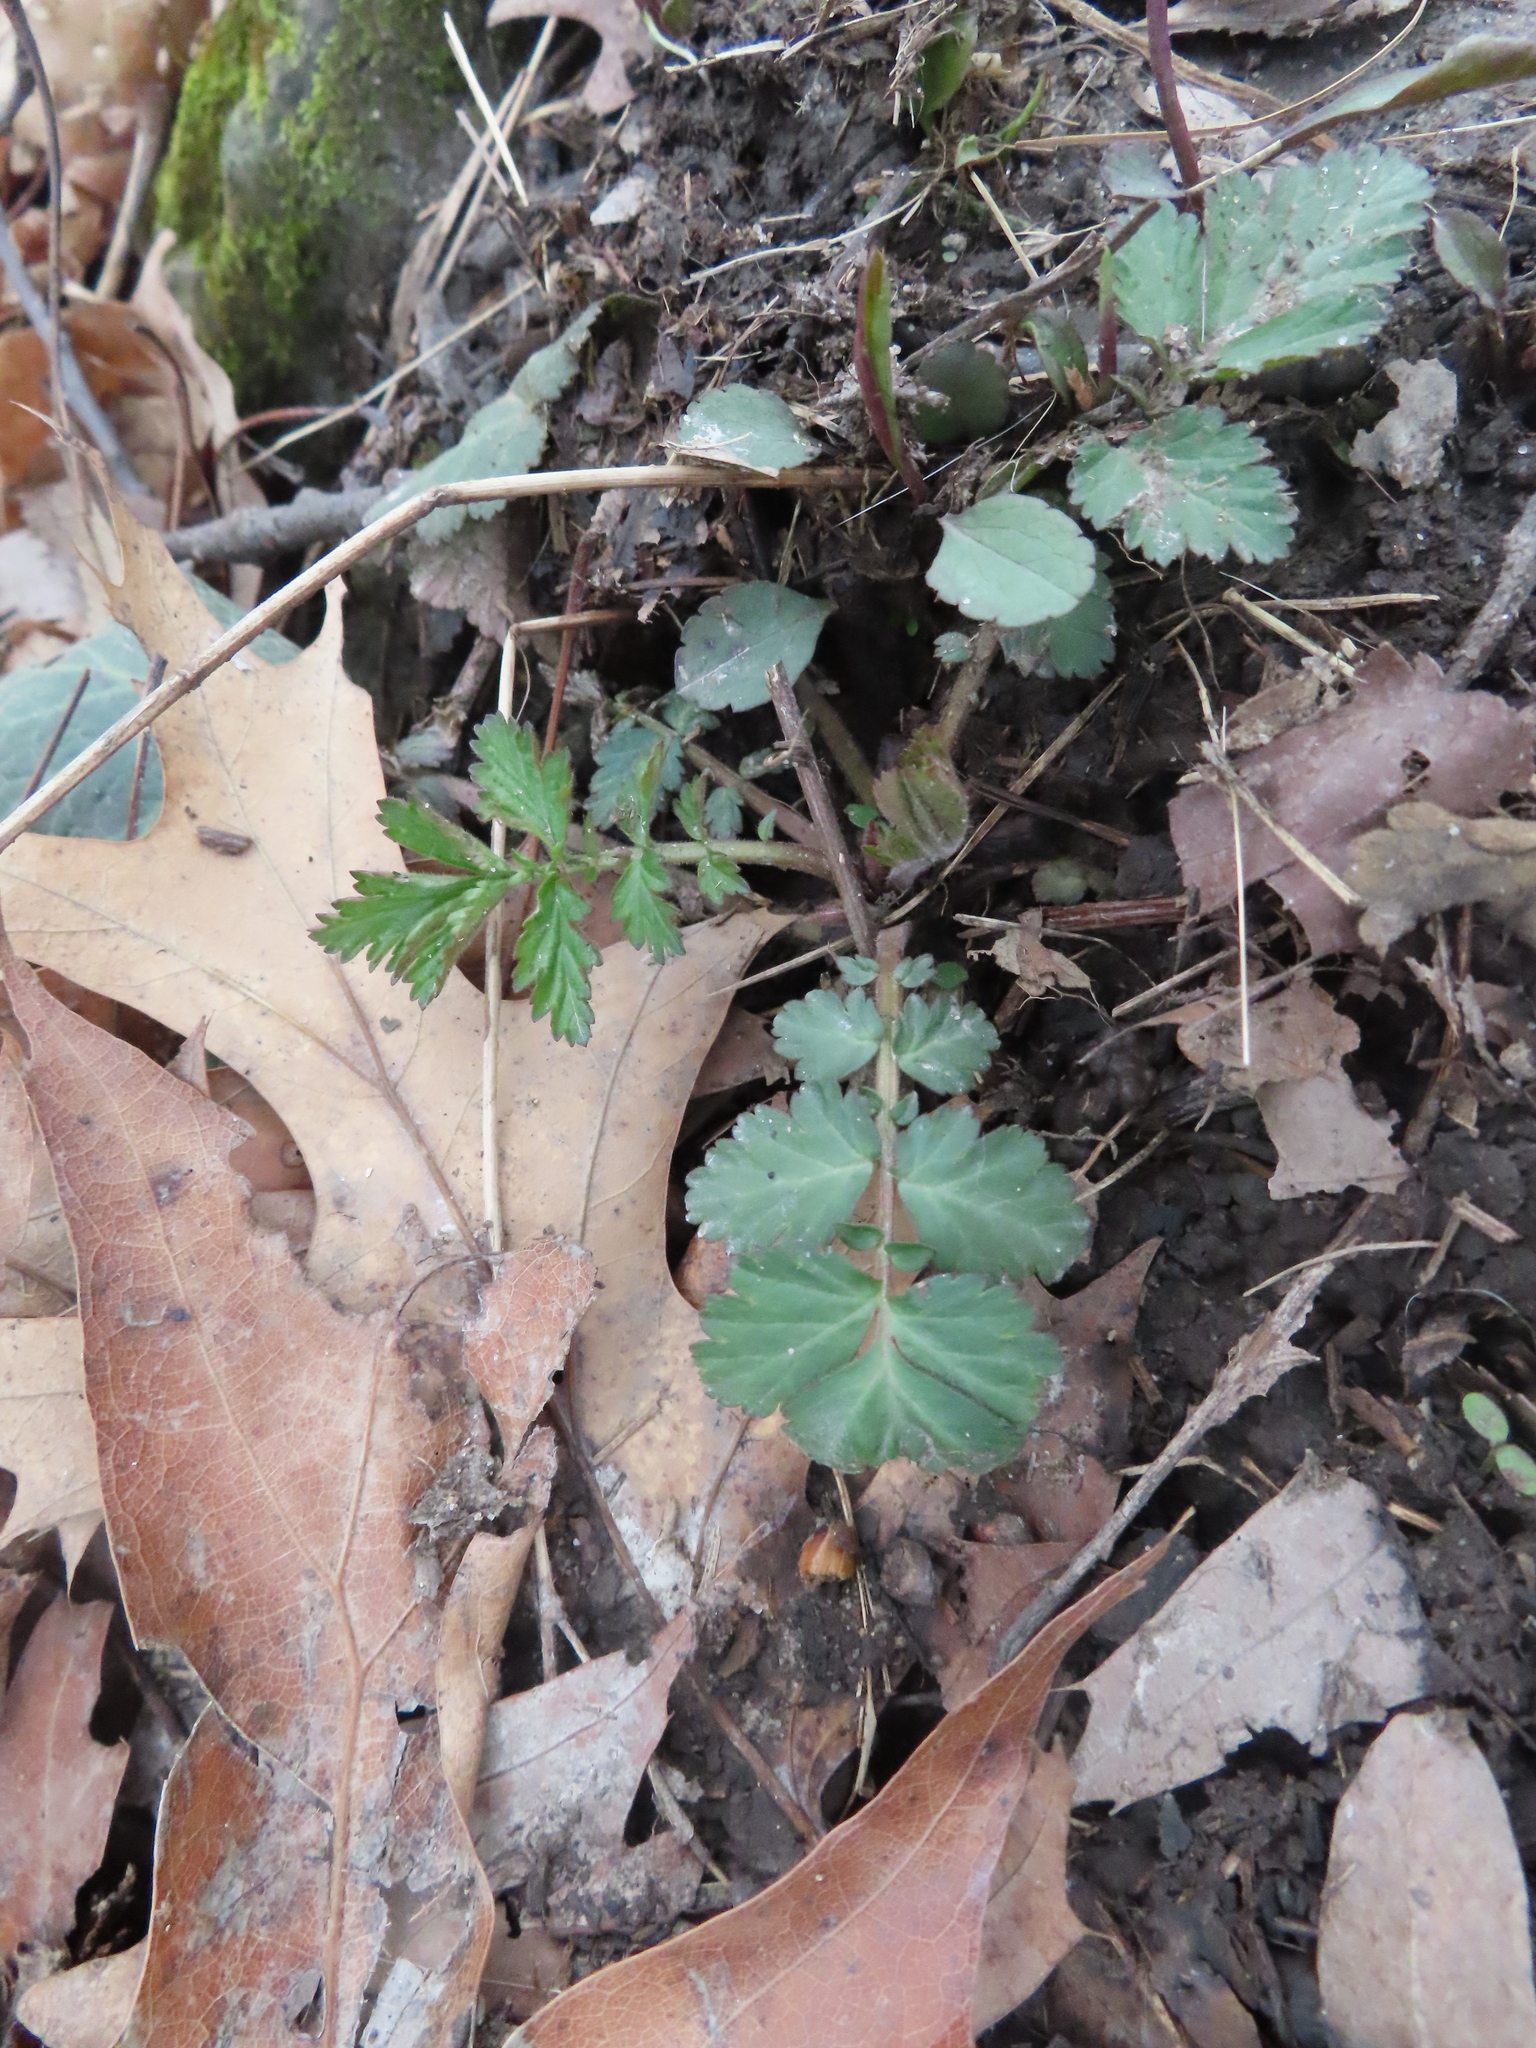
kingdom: Plantae
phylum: Tracheophyta
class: Magnoliopsida
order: Rosales
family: Rosaceae
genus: Geum
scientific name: Geum canadense
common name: White avens
